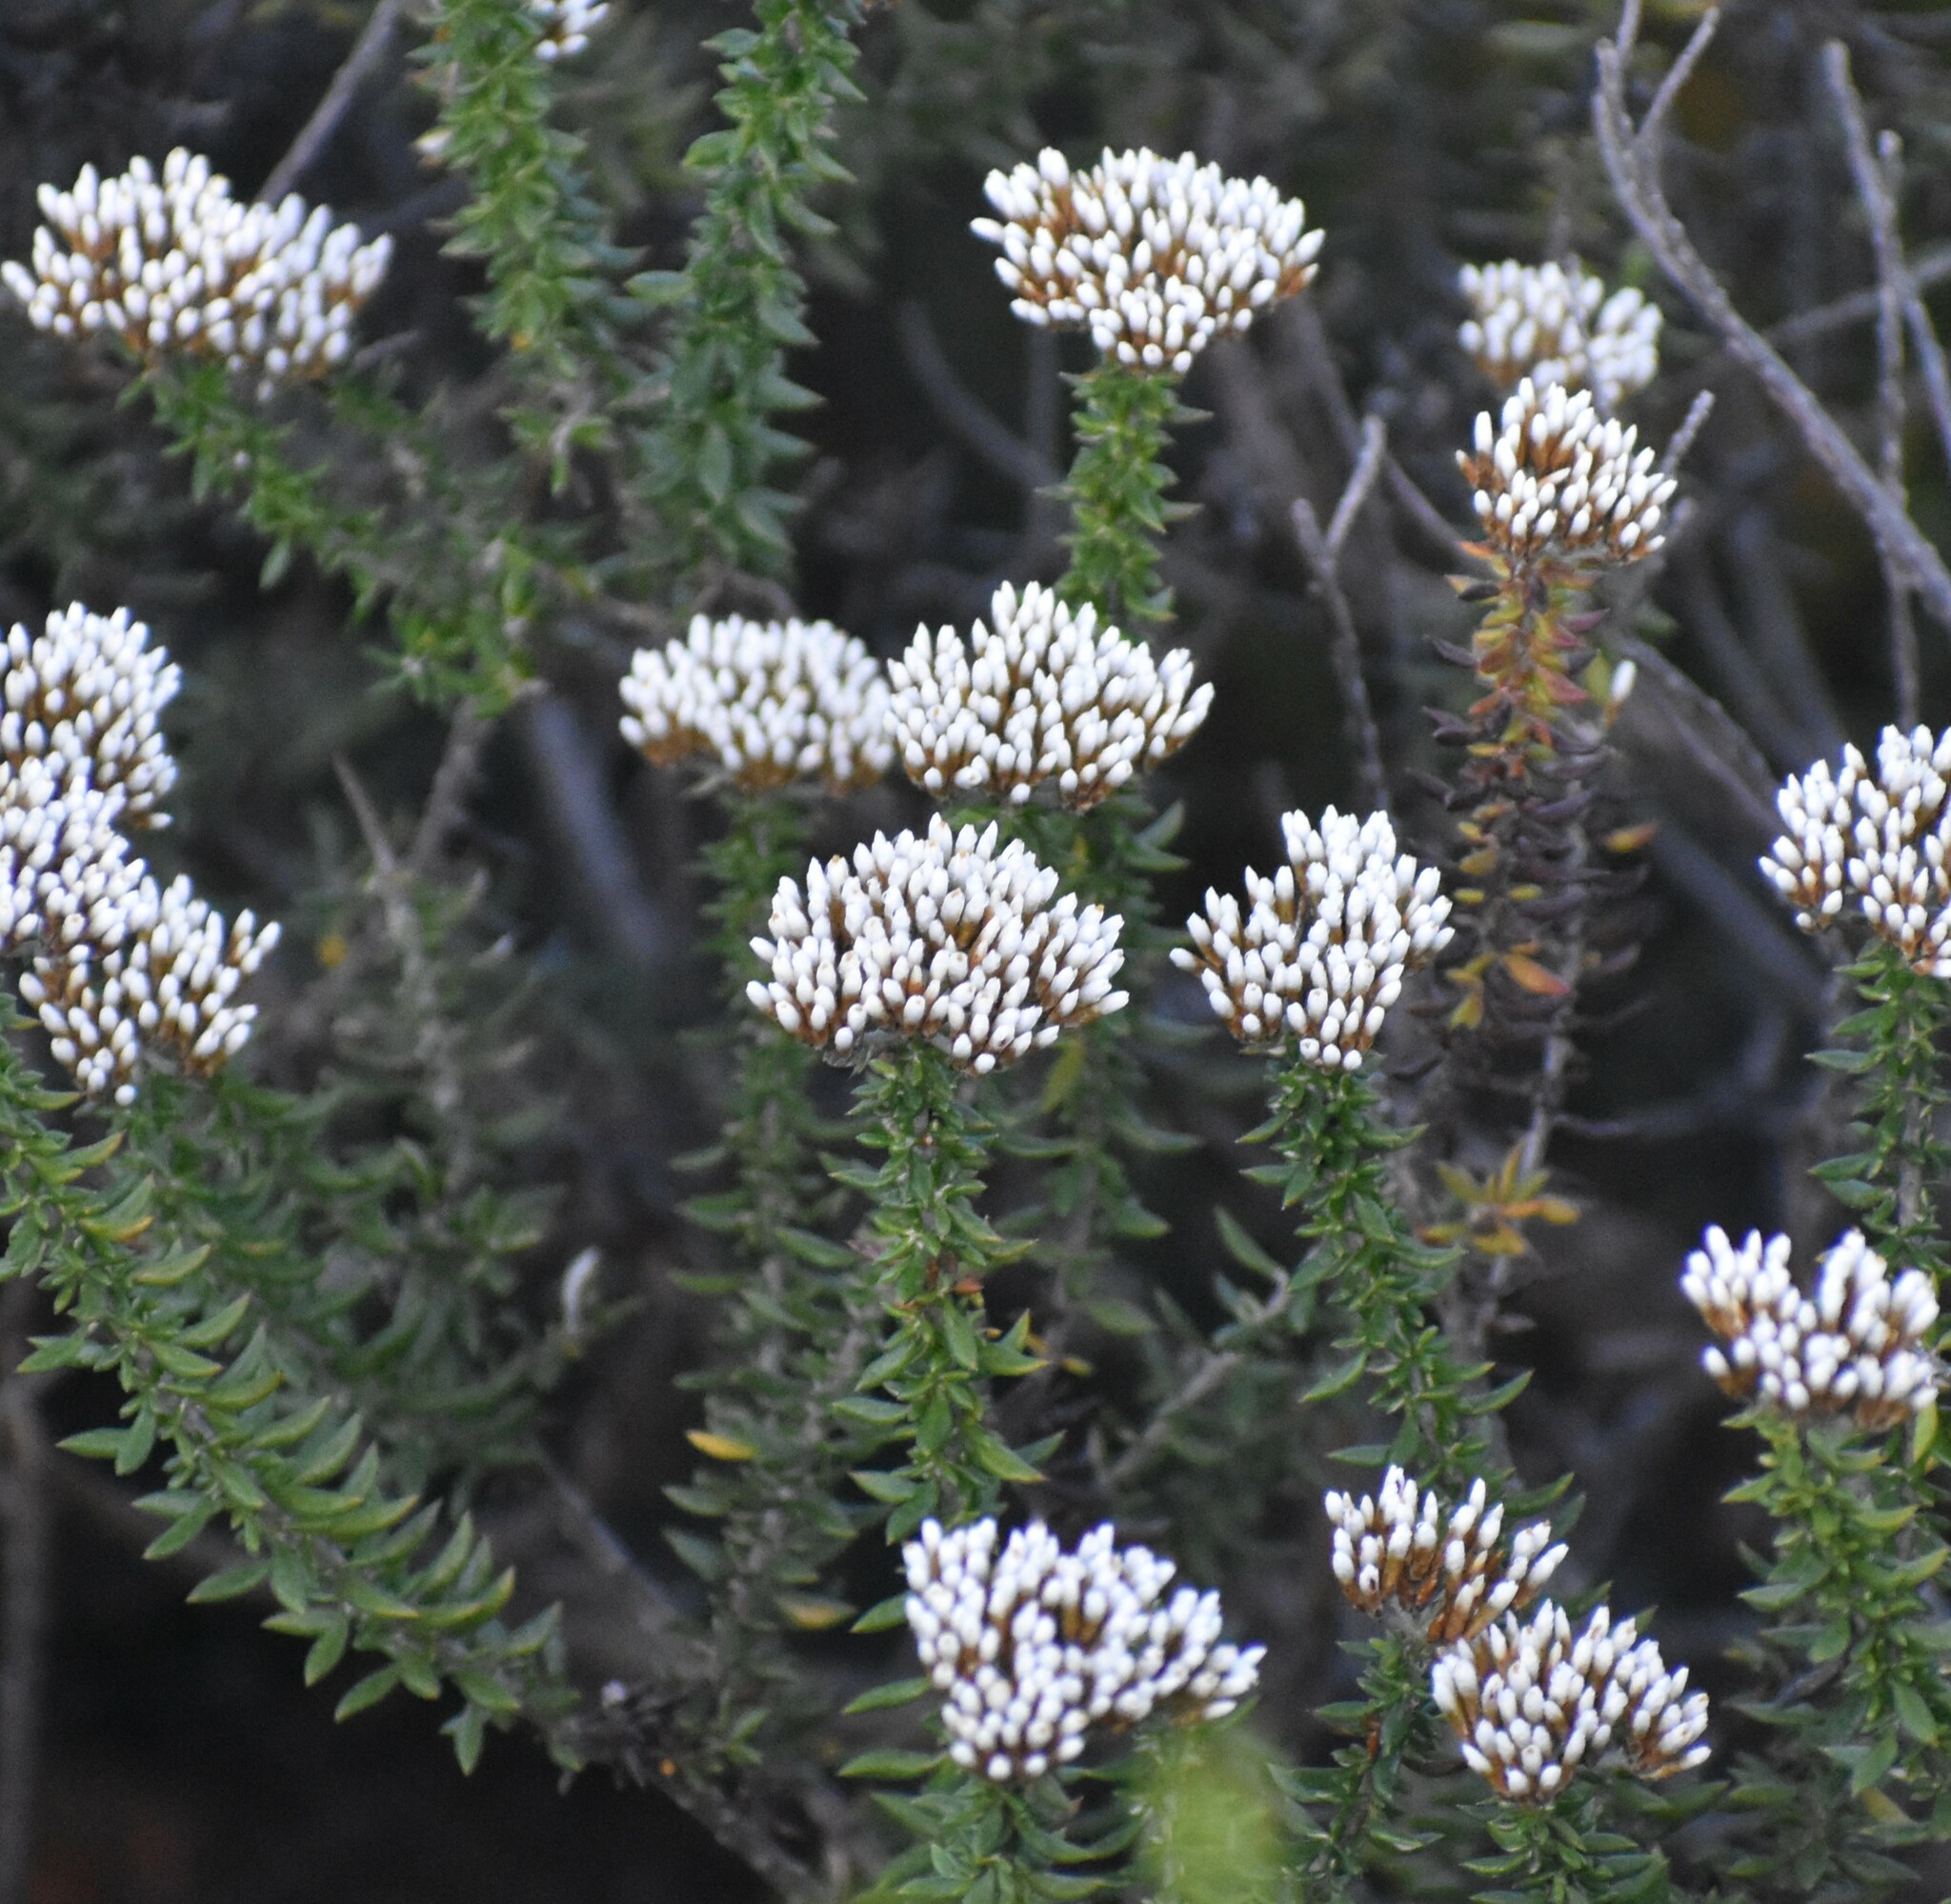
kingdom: Plantae
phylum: Tracheophyta
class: Magnoliopsida
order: Asterales
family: Asteraceae
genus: Metalasia
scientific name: Metalasia muricata
